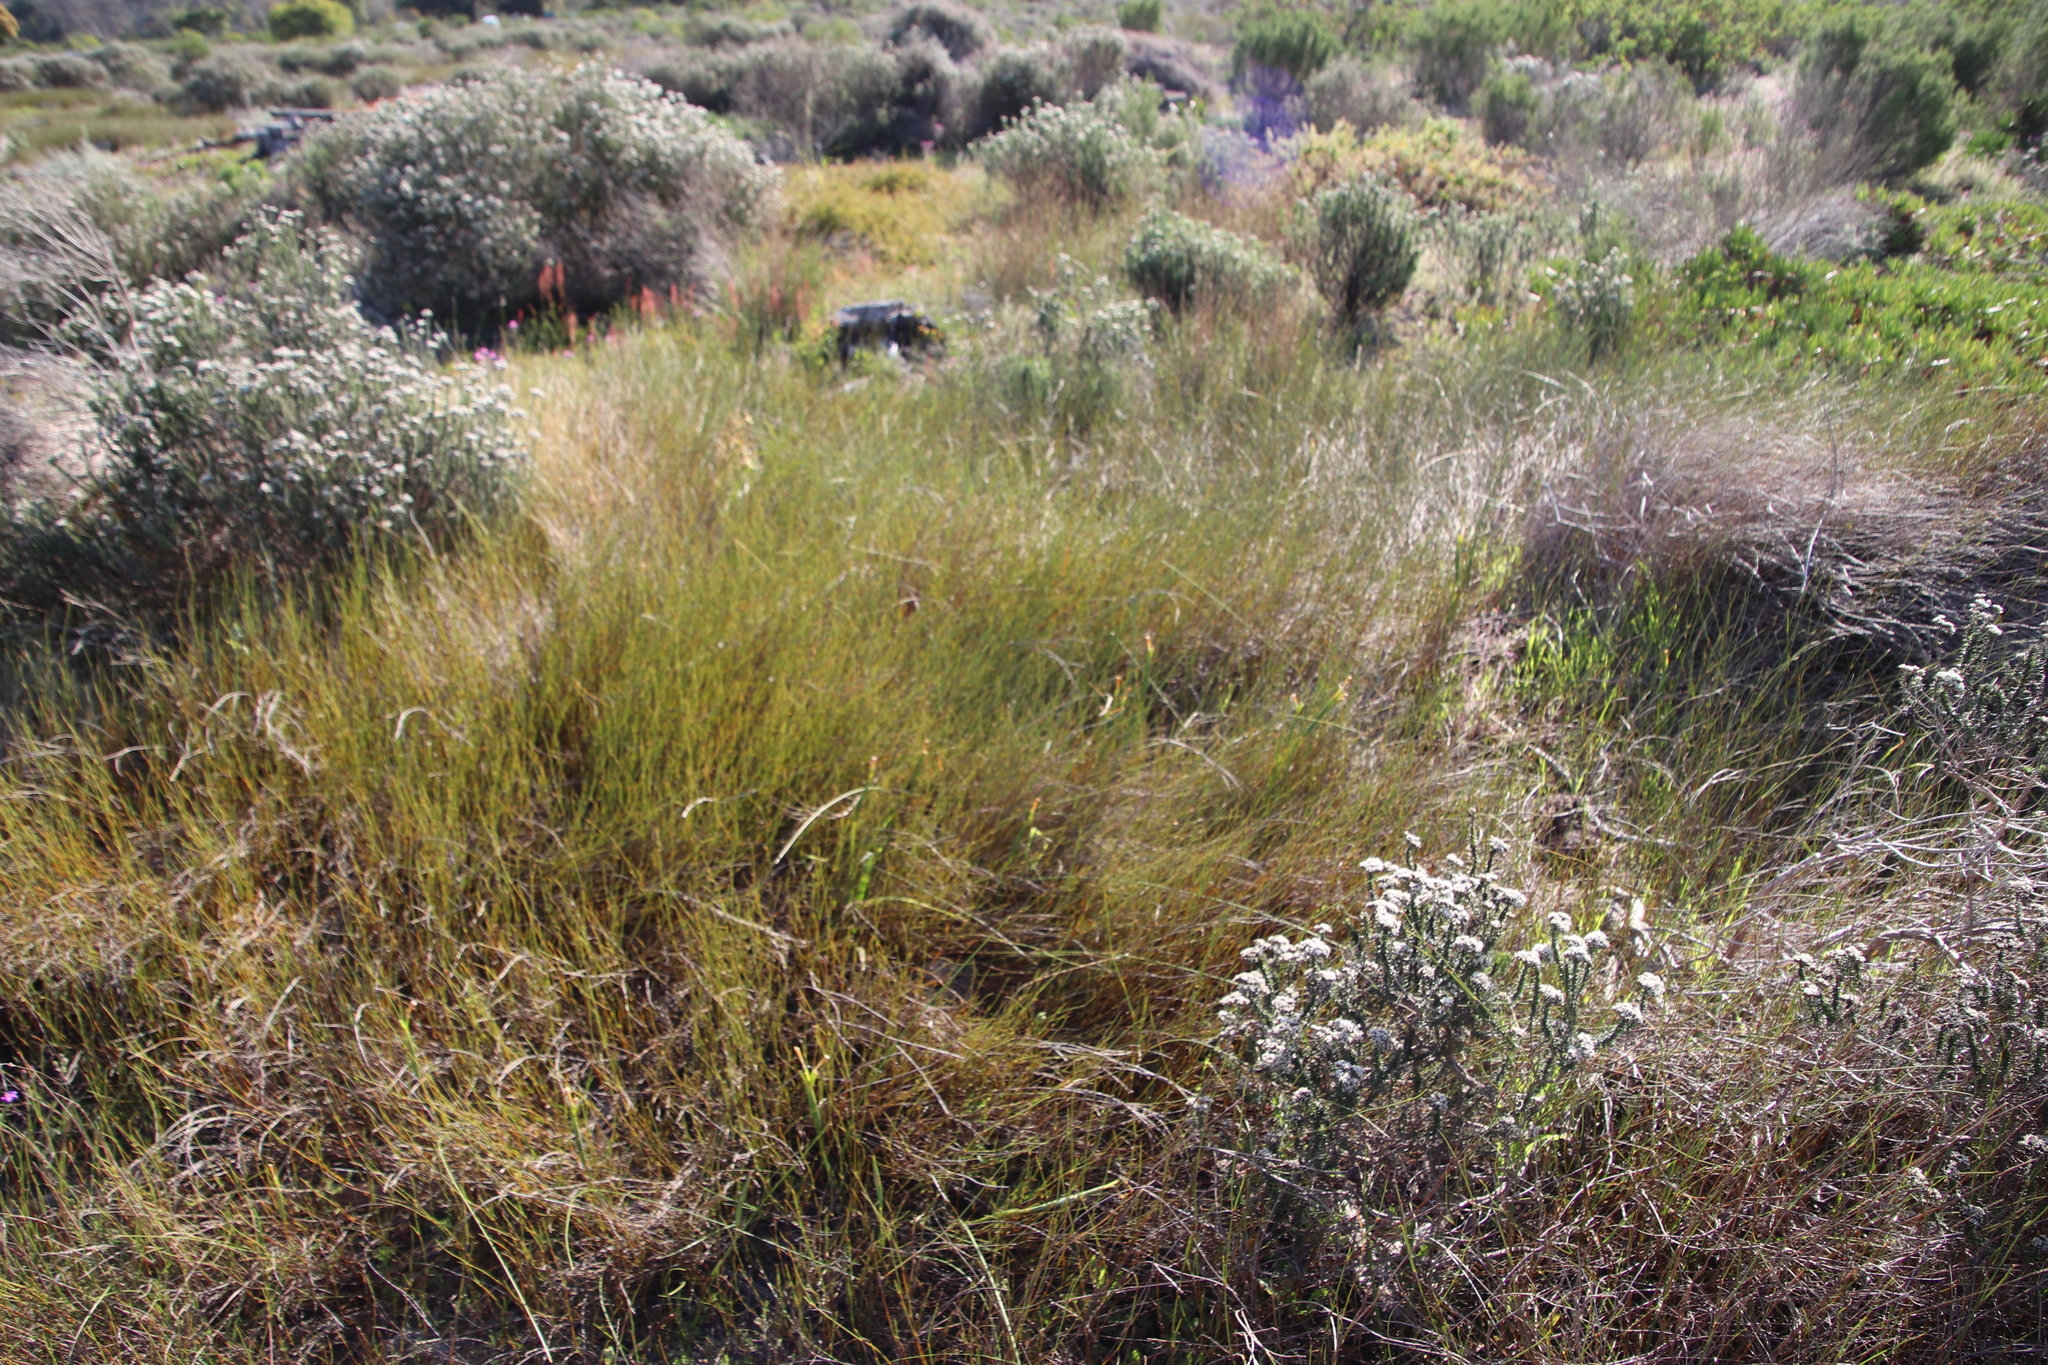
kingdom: Plantae
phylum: Tracheophyta
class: Liliopsida
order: Asparagales
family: Iridaceae
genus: Moraea
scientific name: Moraea neglecta
